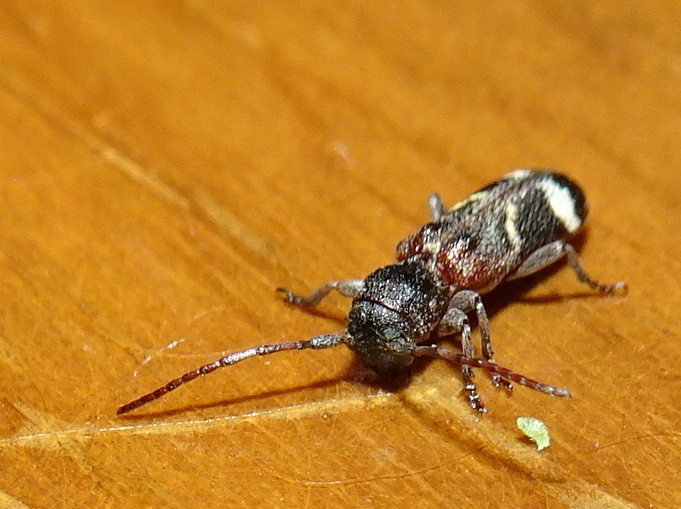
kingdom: Animalia
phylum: Arthropoda
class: Insecta
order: Coleoptera
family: Cerambycidae
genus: Psenocerus
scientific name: Psenocerus supernotatus
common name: Currant-tip borer
